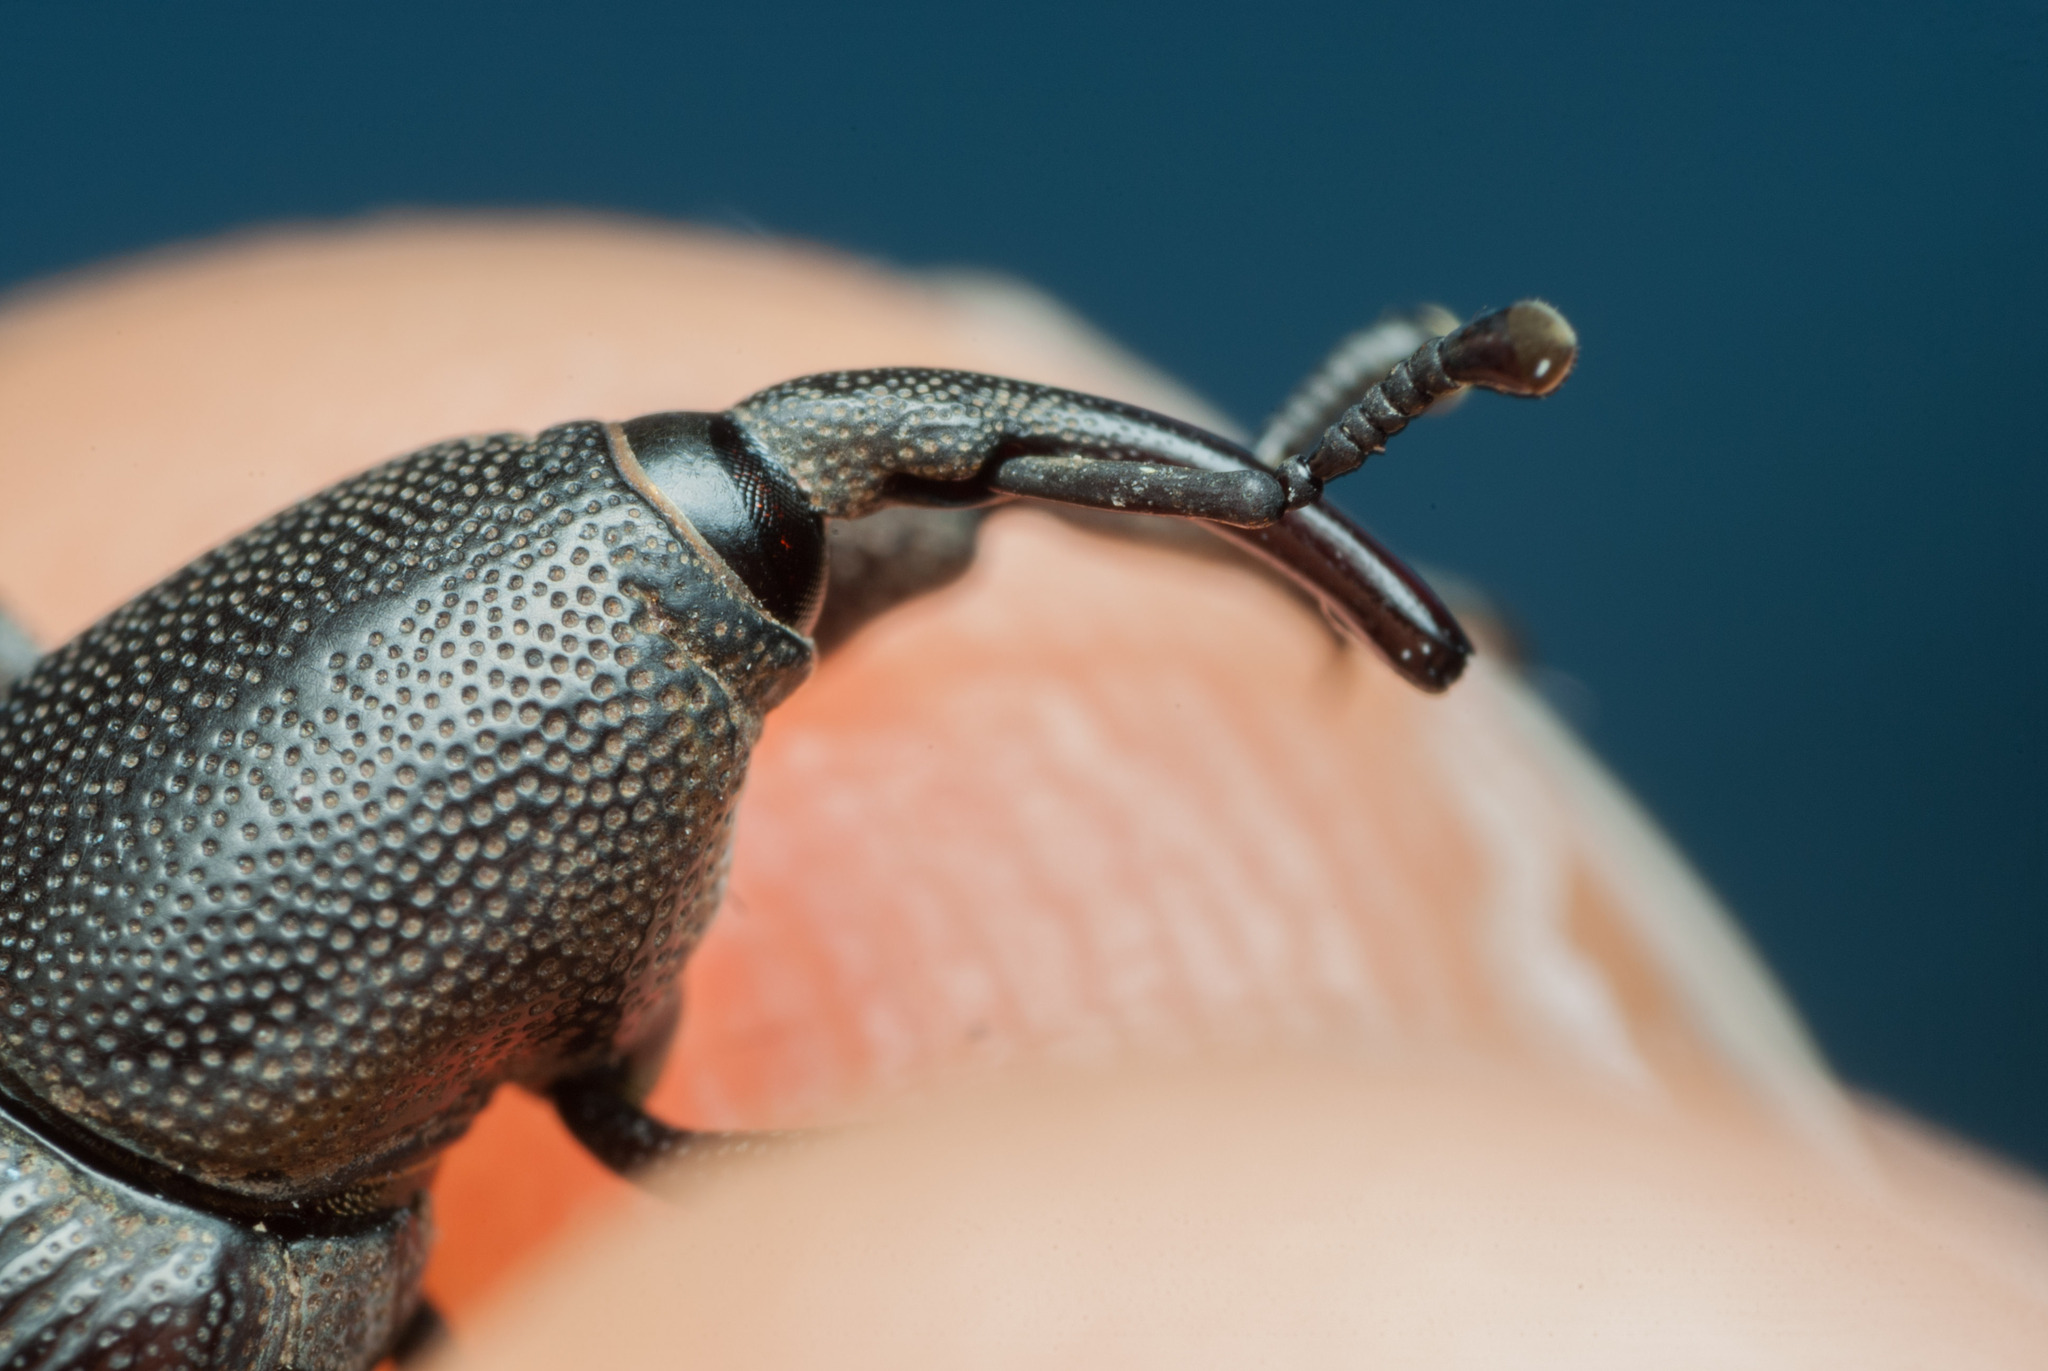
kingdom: Animalia
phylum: Arthropoda
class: Insecta
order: Coleoptera
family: Dryophthoridae
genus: Cosmopolites
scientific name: Cosmopolites sordidus
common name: Palm weevil
